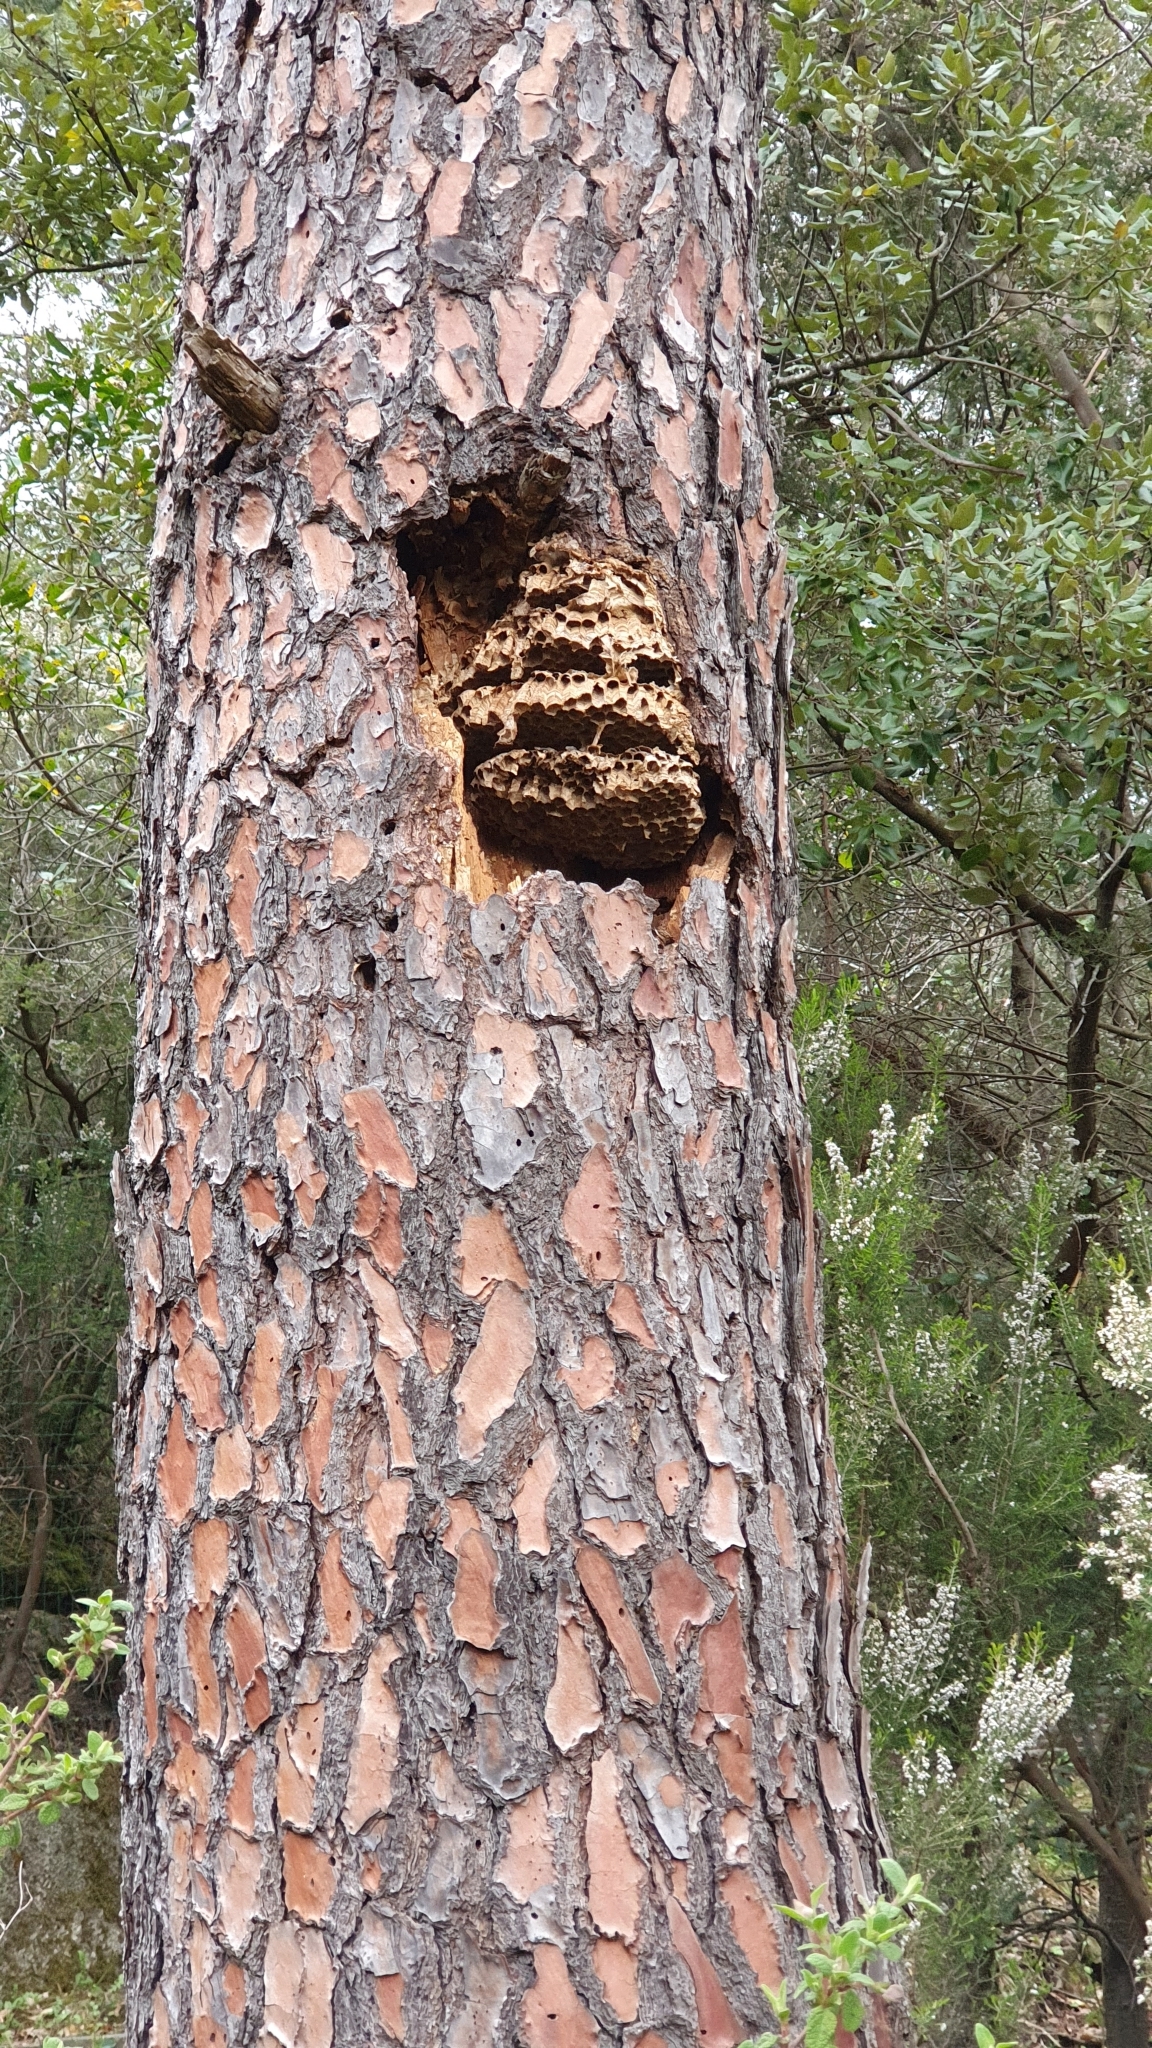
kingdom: Animalia
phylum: Arthropoda
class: Insecta
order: Hymenoptera
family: Vespidae
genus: Vespa
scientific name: Vespa crabro
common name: Hornet
